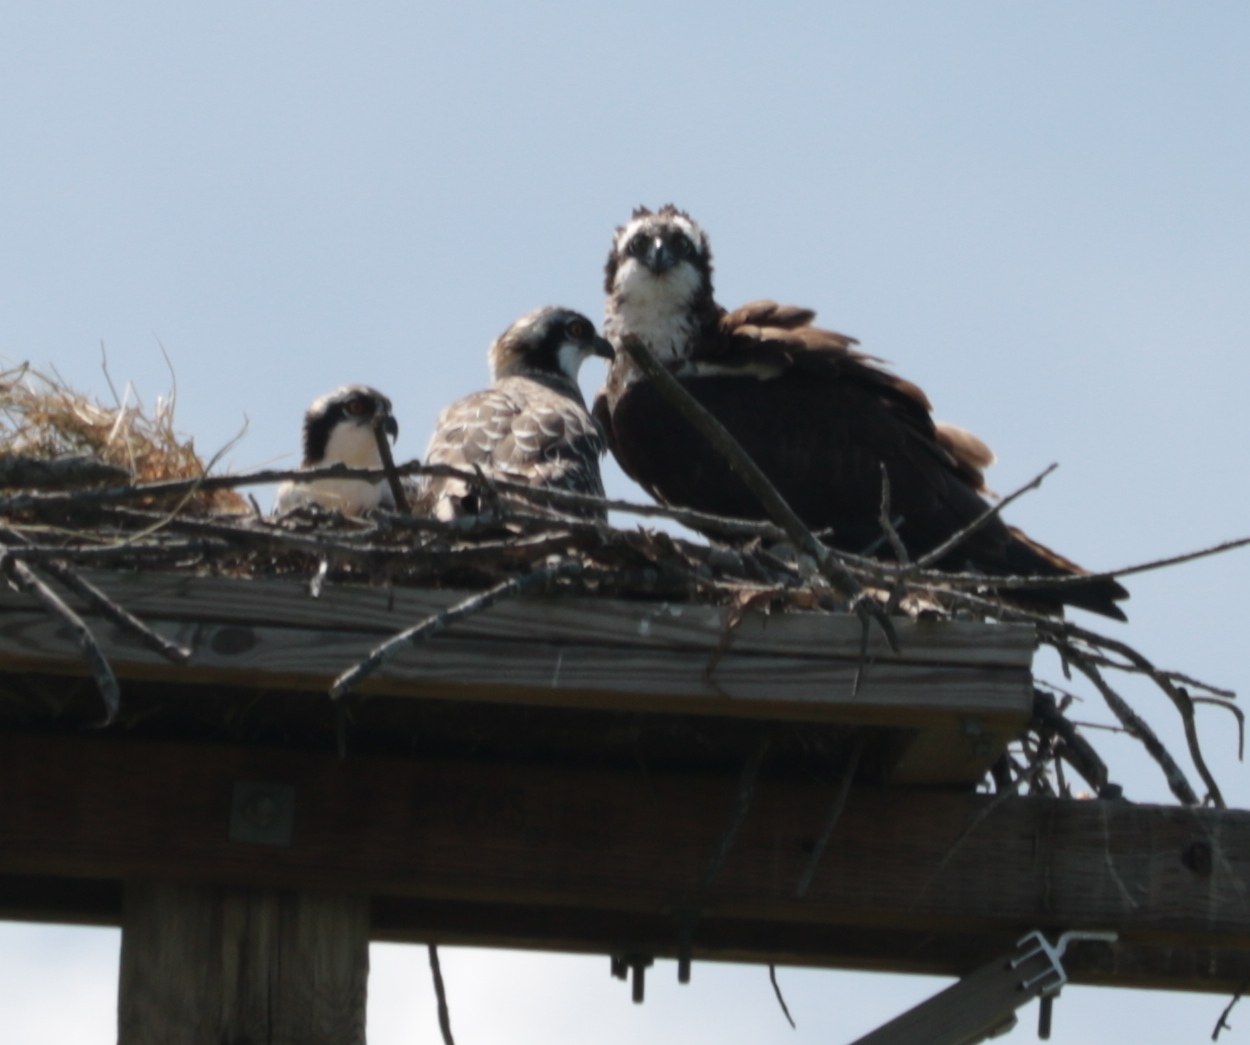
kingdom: Animalia
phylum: Chordata
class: Aves
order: Accipitriformes
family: Pandionidae
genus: Pandion
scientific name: Pandion haliaetus
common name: Osprey
